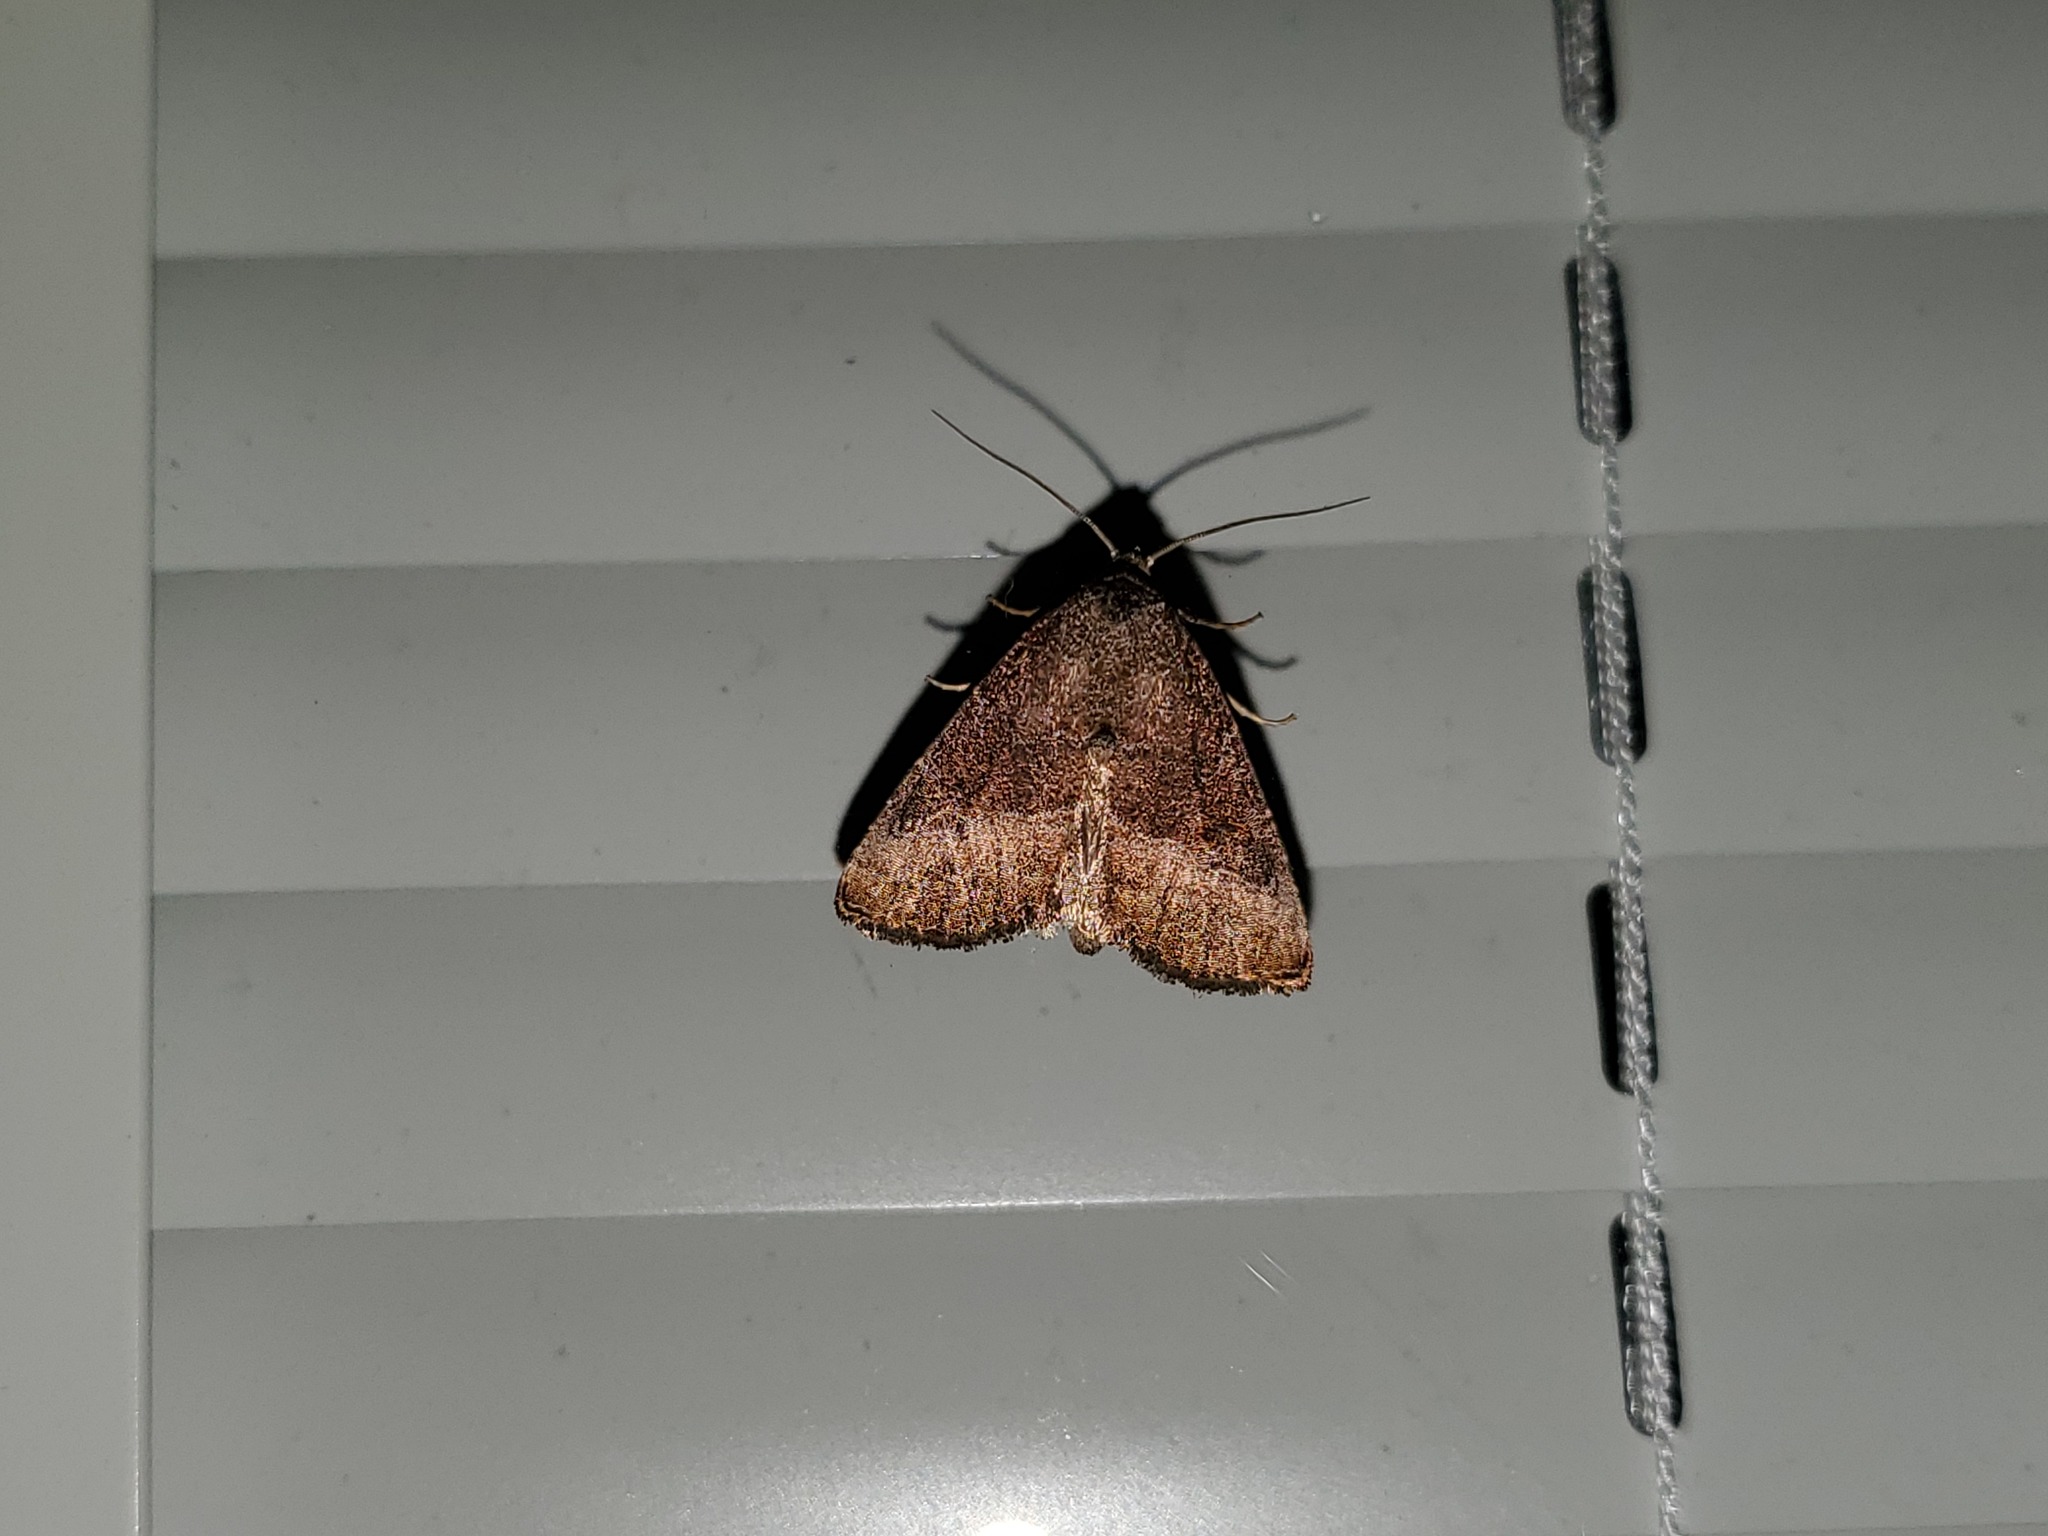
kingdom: Animalia
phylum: Arthropoda
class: Insecta
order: Lepidoptera
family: Noctuidae
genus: Ogdoconta
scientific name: Ogdoconta cinereola
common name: Common pinkband
